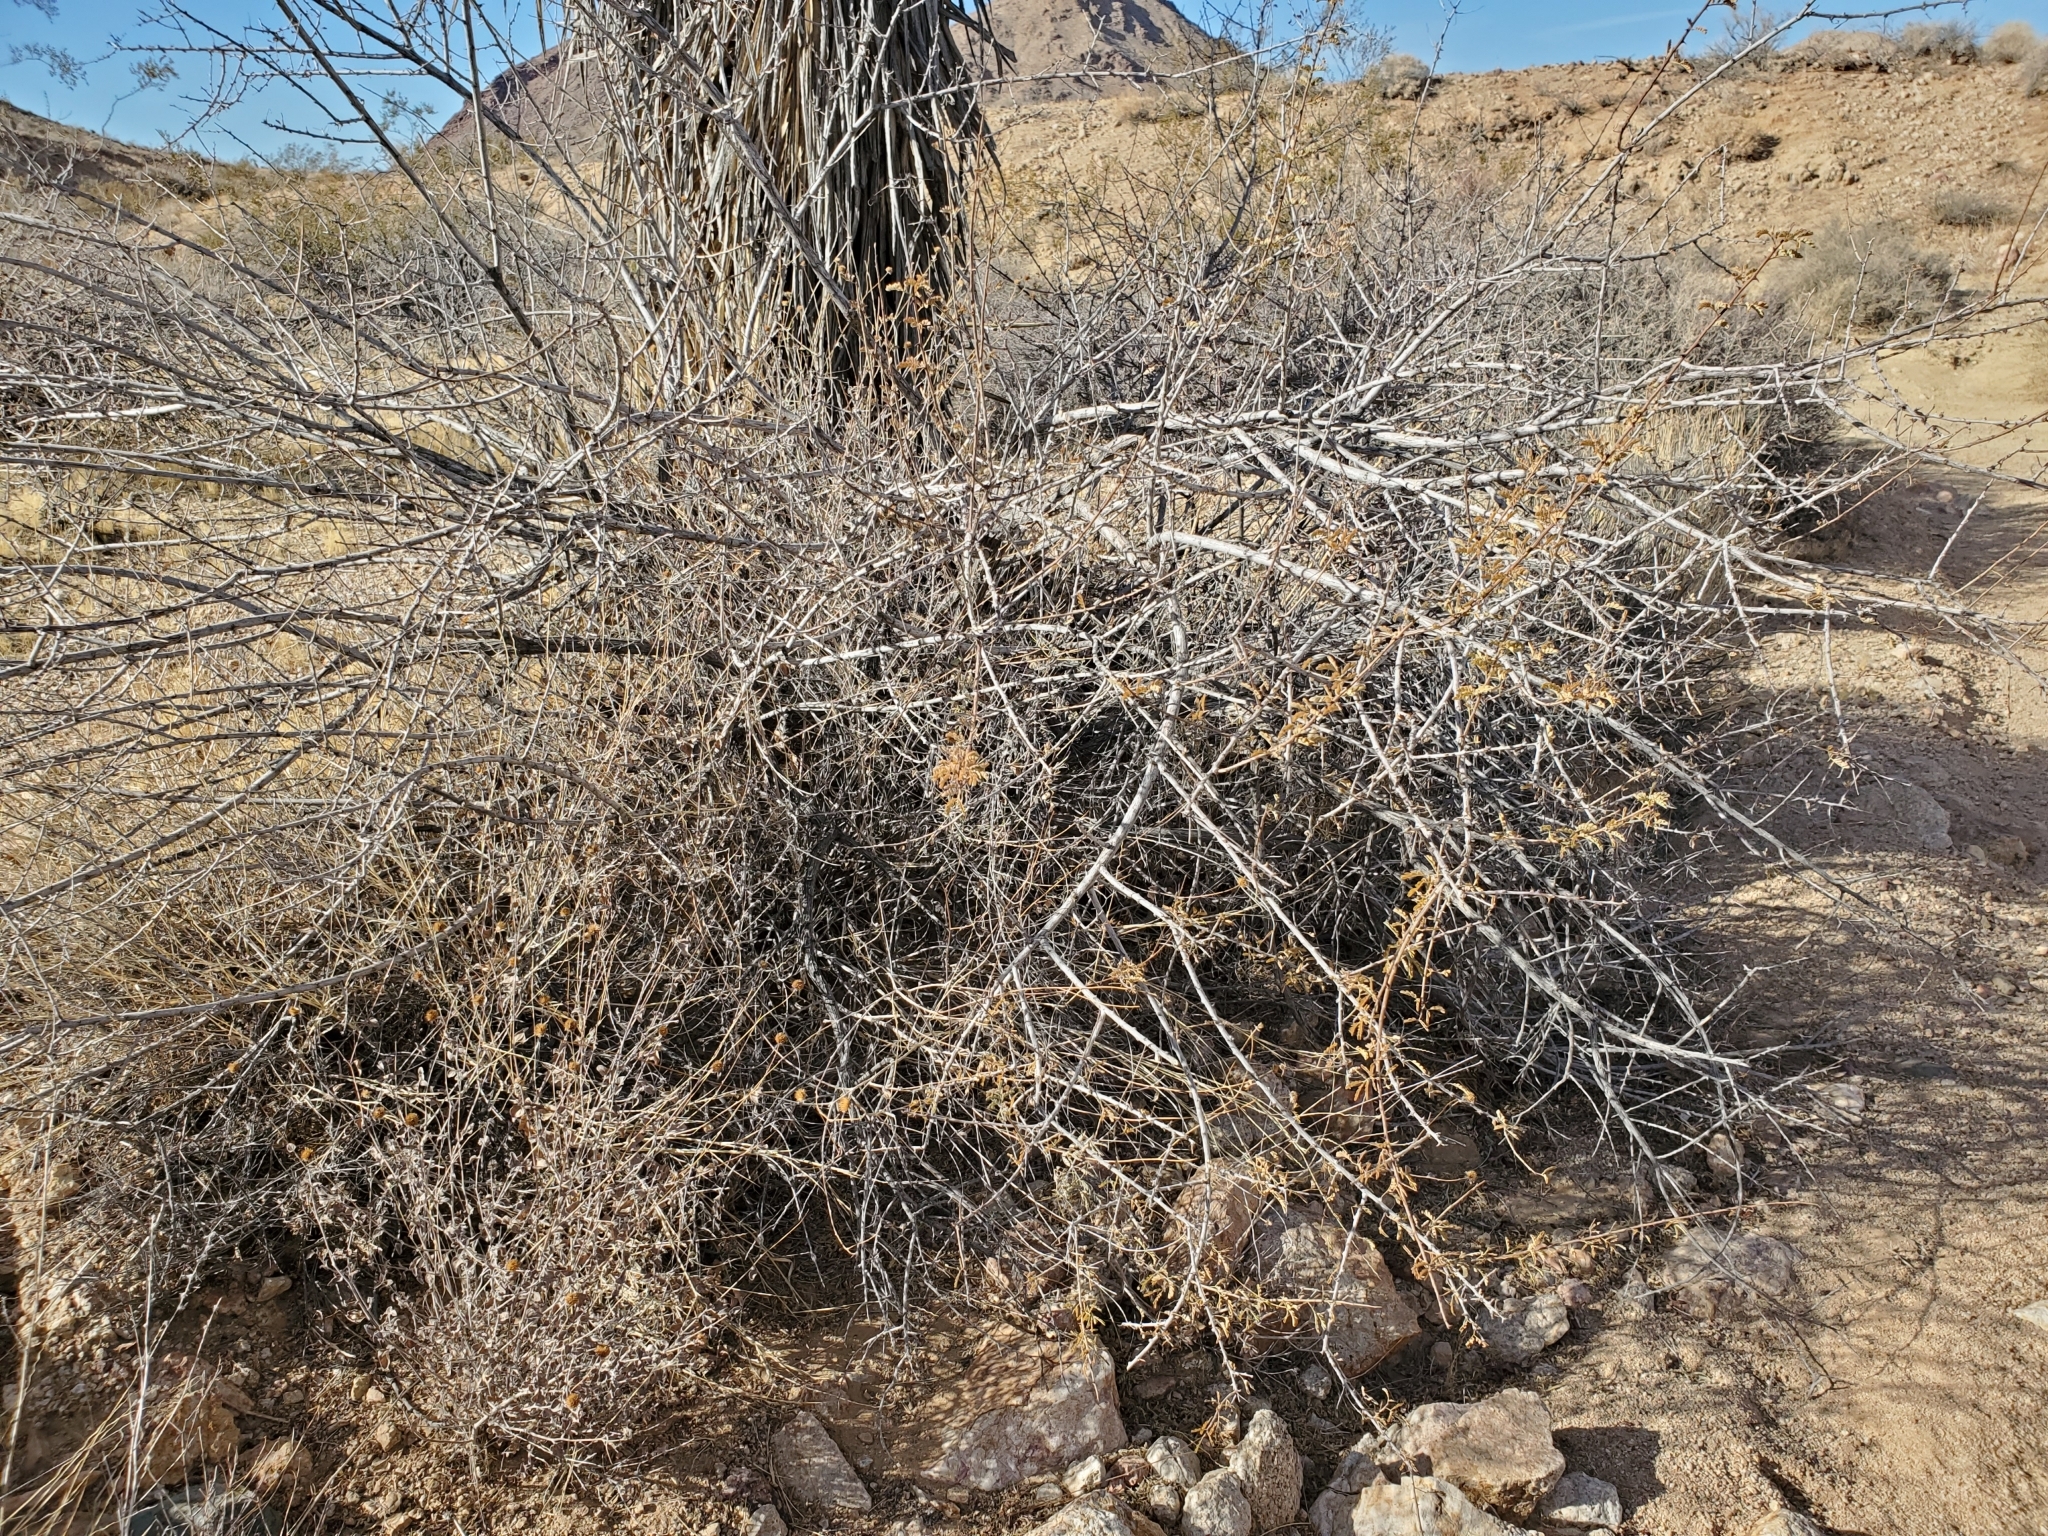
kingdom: Plantae
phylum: Tracheophyta
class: Magnoliopsida
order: Fabales
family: Fabaceae
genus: Senegalia
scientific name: Senegalia greggii
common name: Texas-mimosa
